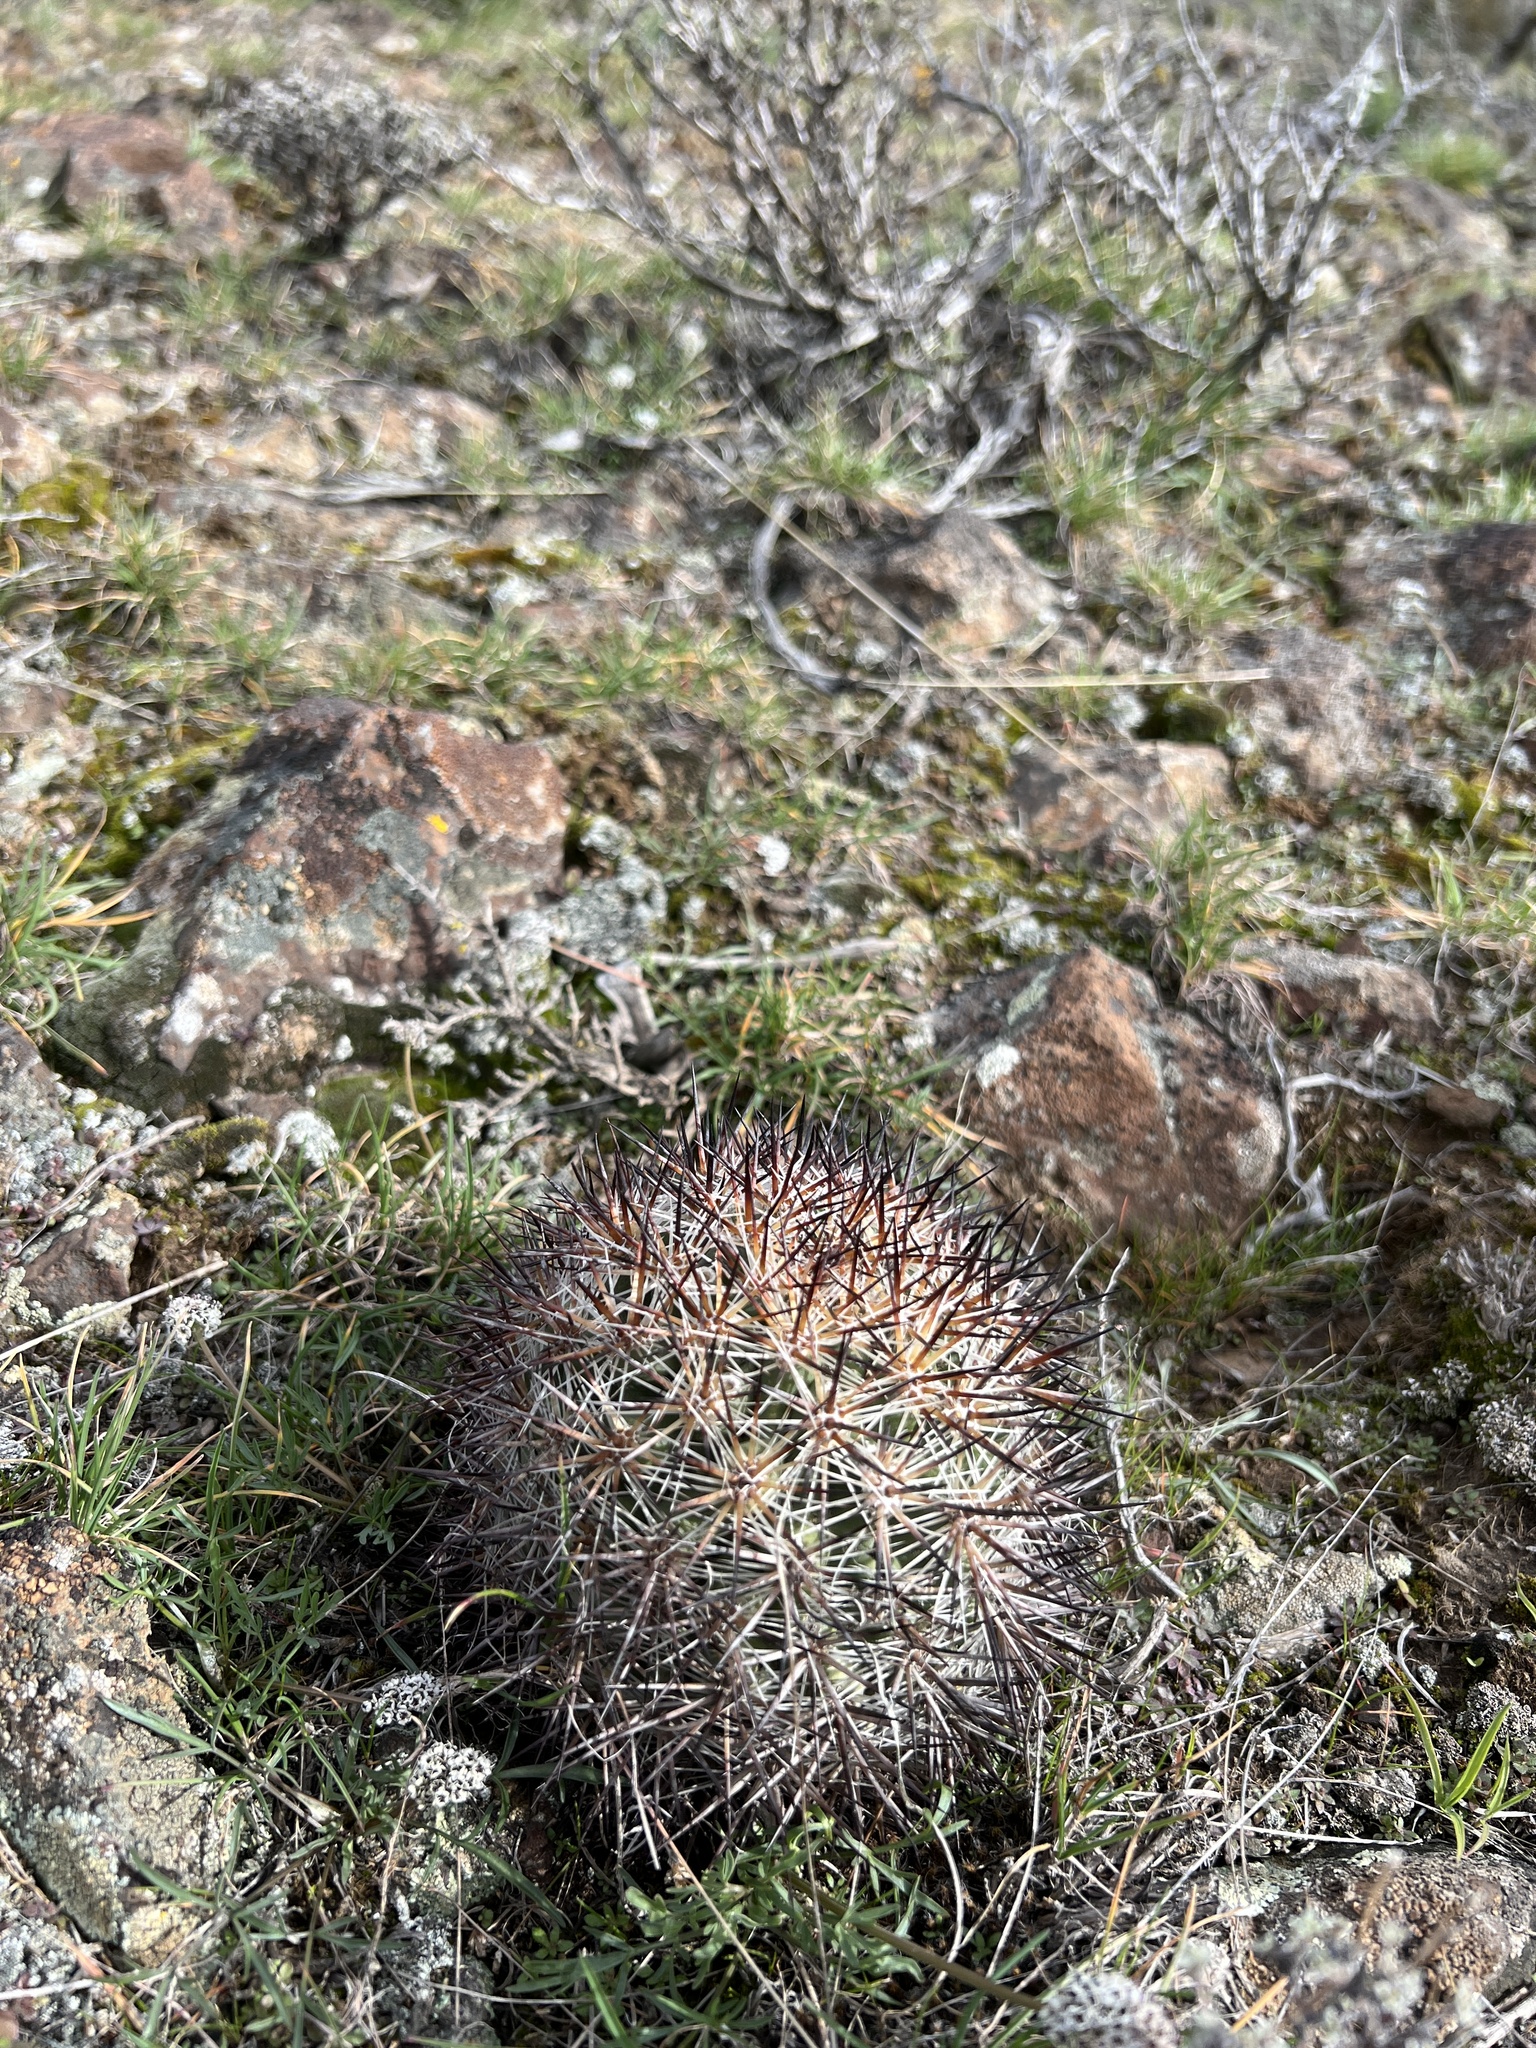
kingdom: Plantae
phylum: Tracheophyta
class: Magnoliopsida
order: Caryophyllales
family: Cactaceae
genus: Pediocactus
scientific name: Pediocactus nigrispinus
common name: Simpson's hedgehog cactus
